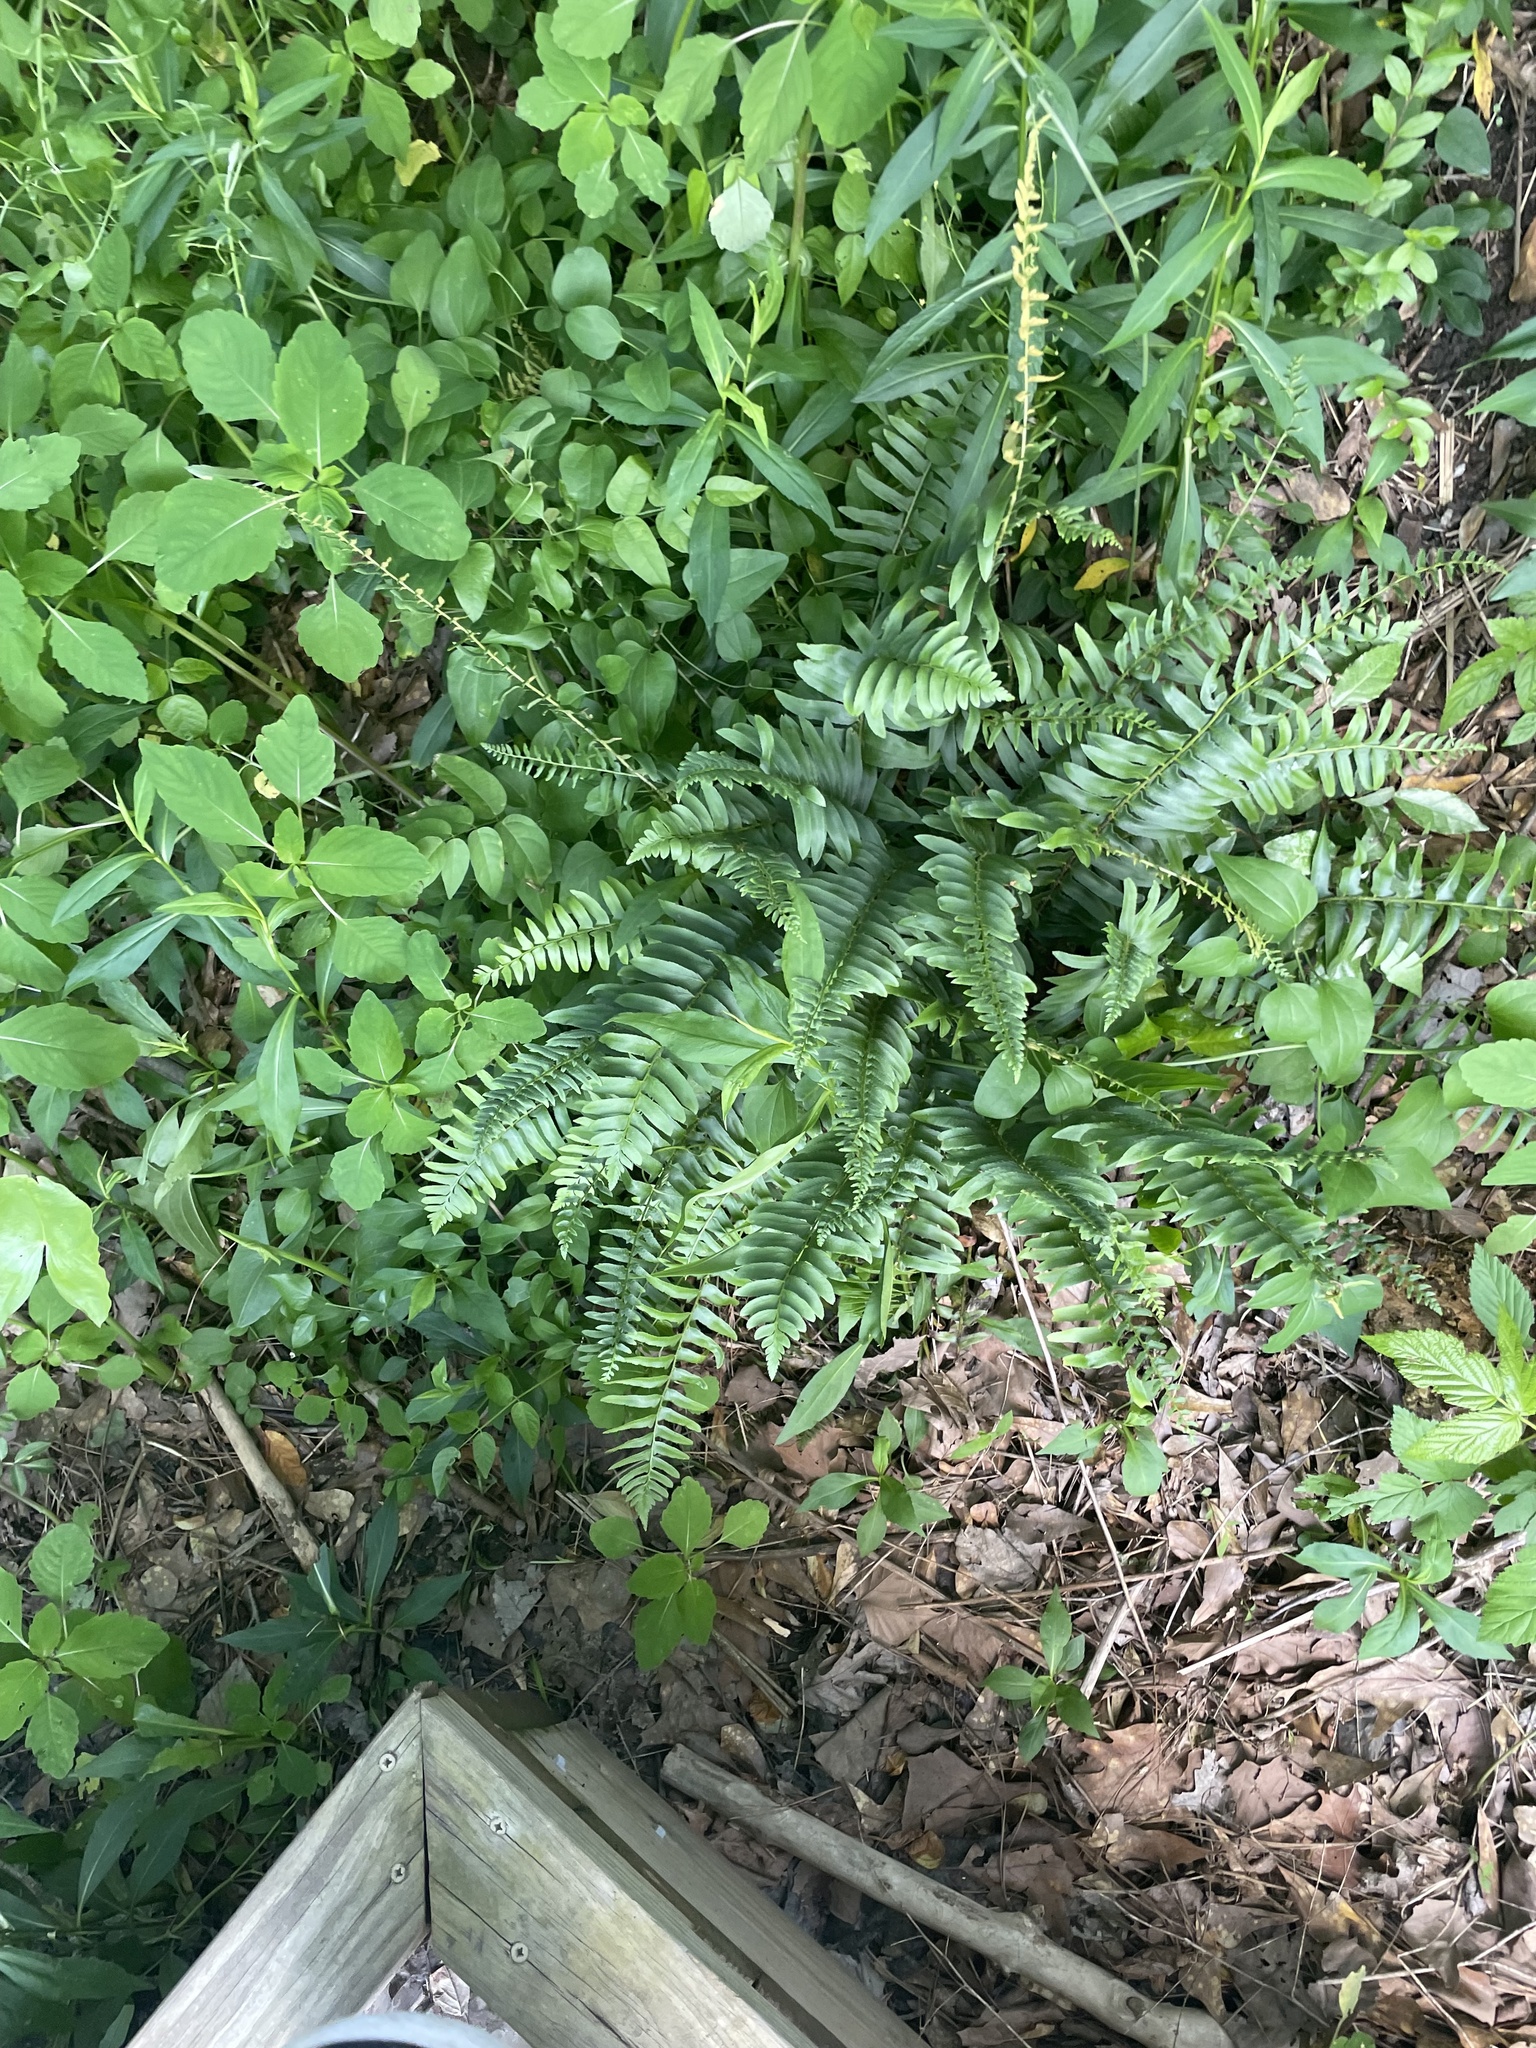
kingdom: Plantae
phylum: Tracheophyta
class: Polypodiopsida
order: Polypodiales
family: Dryopteridaceae
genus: Polystichum
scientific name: Polystichum acrostichoides
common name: Christmas fern
